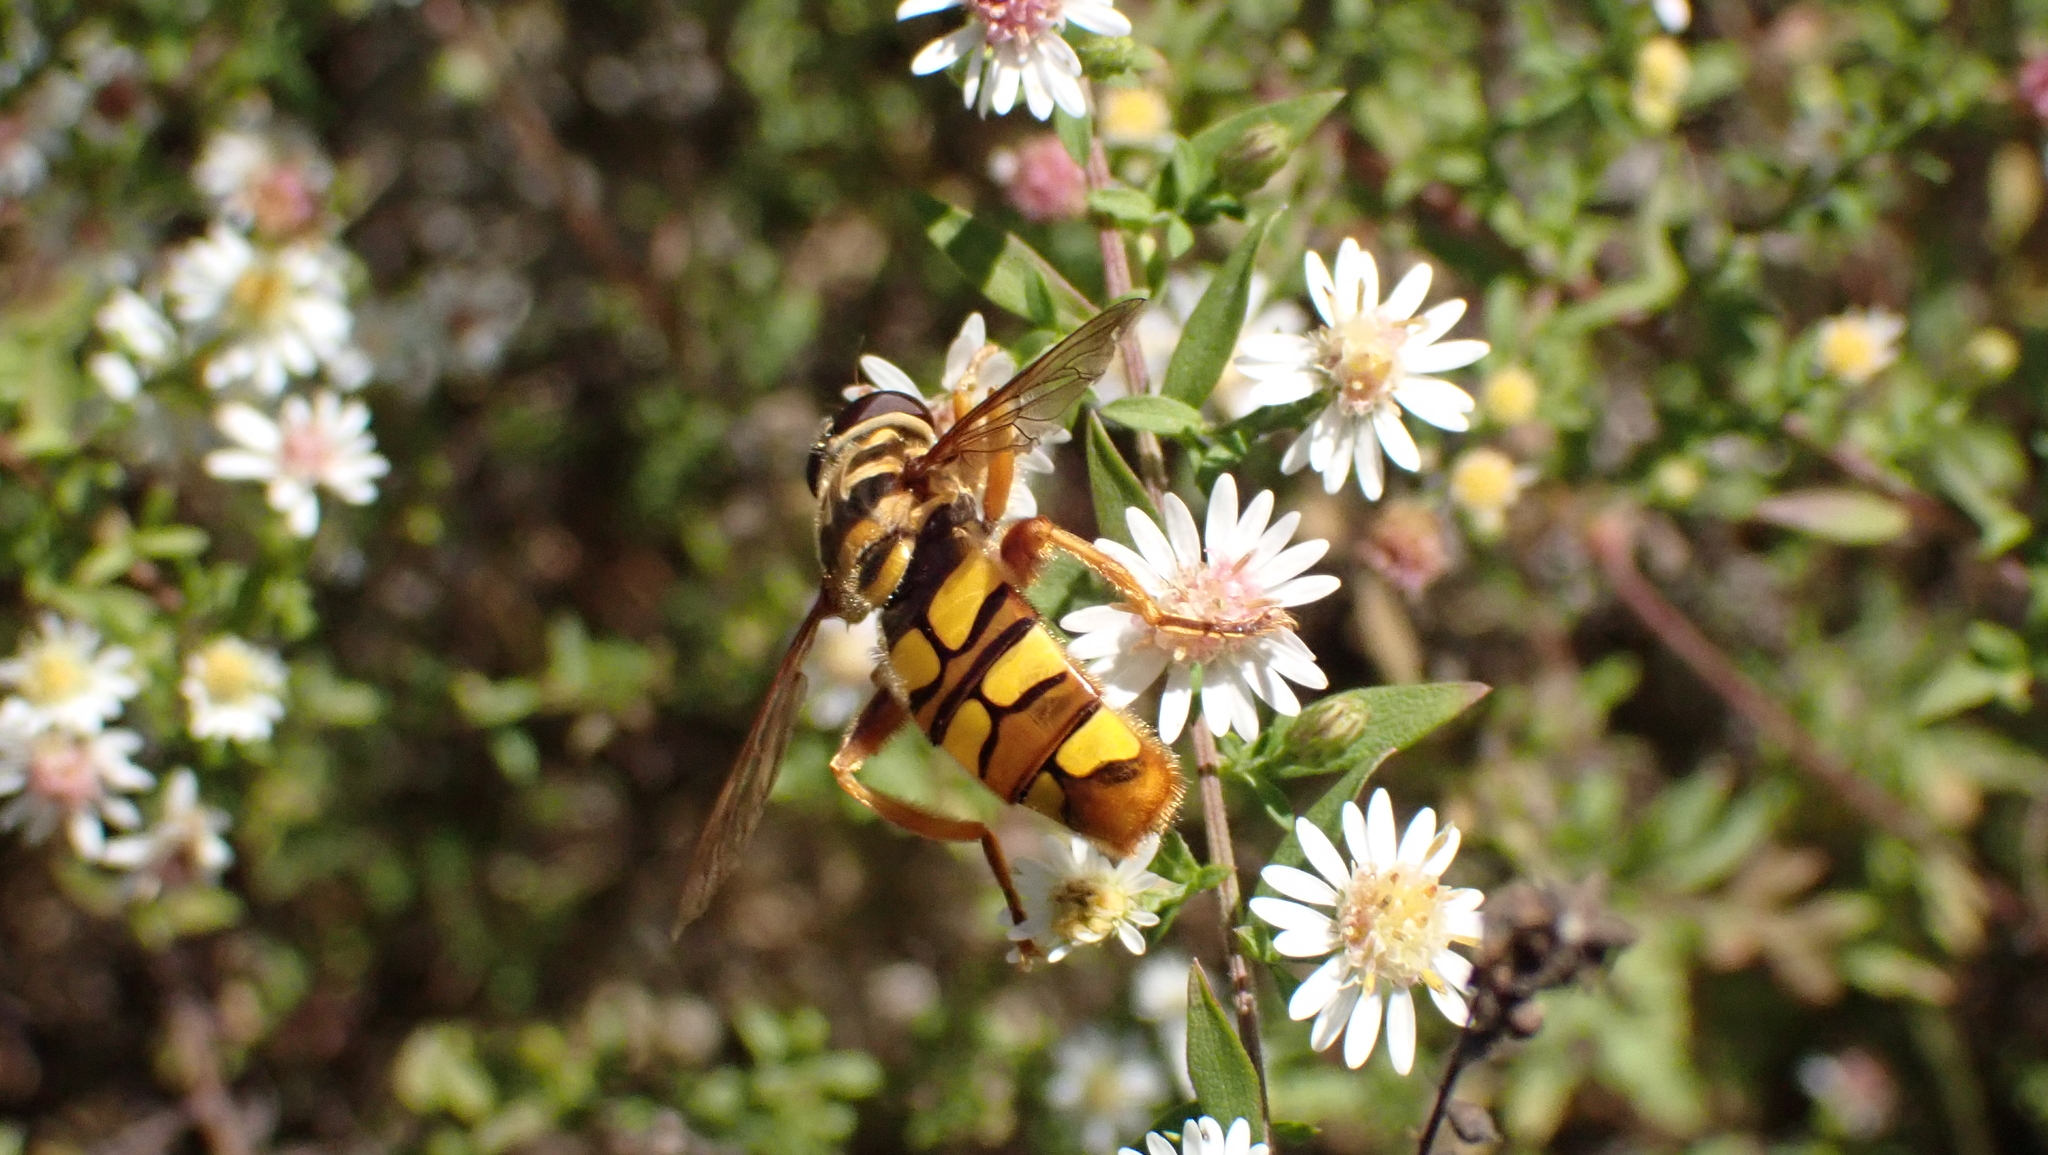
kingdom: Animalia
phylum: Arthropoda
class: Insecta
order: Diptera
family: Syrphidae
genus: Milesia
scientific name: Milesia virginiensis
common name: Virginia giant
